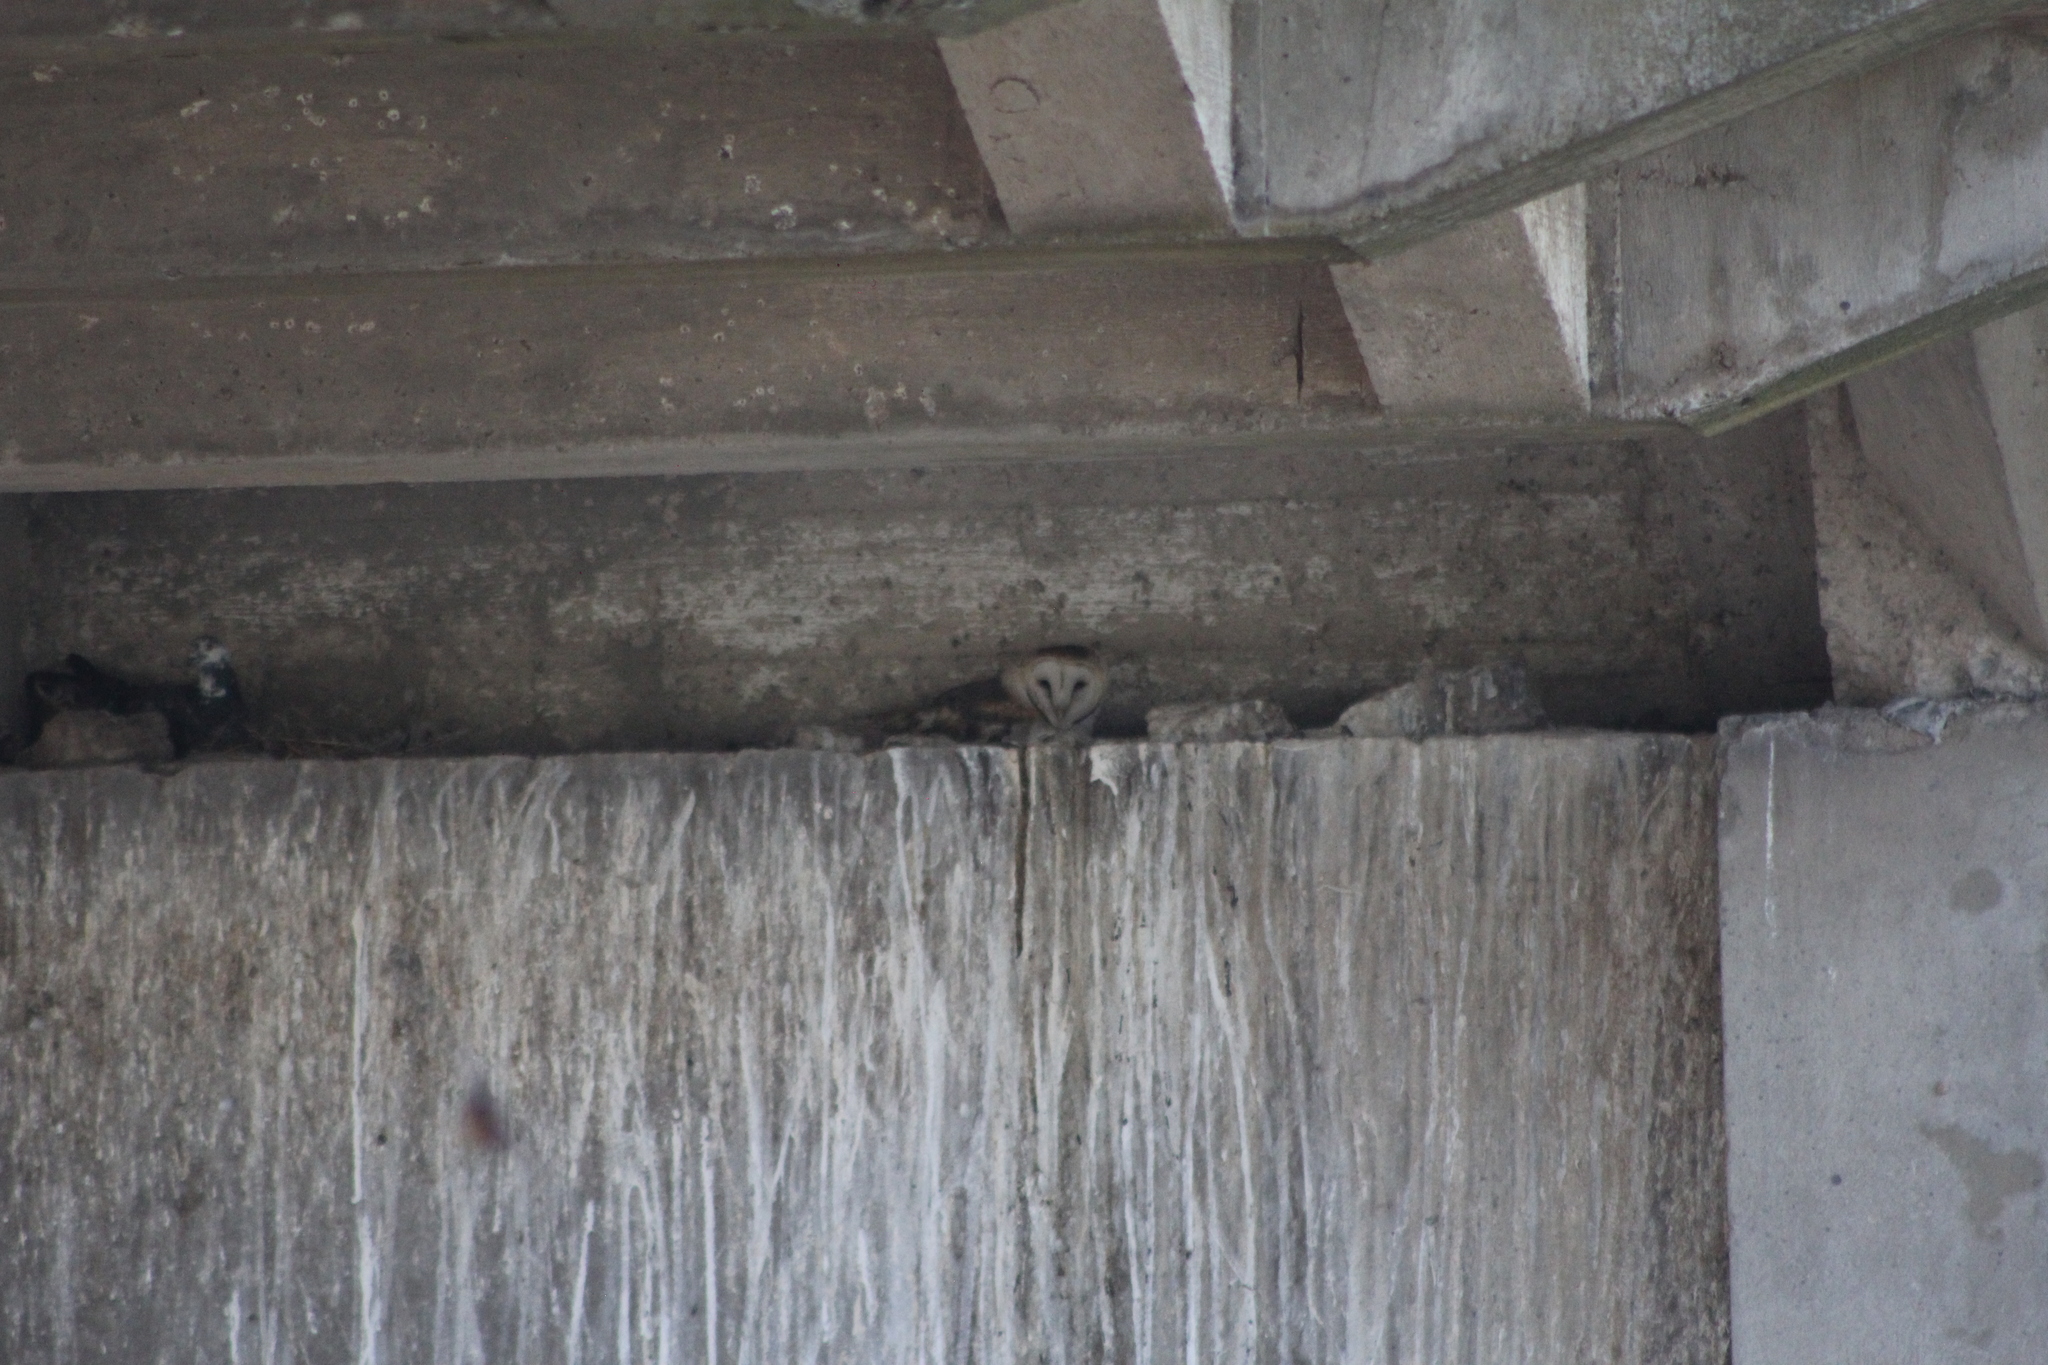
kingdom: Animalia
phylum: Chordata
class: Aves
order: Strigiformes
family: Tytonidae
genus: Tyto
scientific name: Tyto alba
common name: Barn owl
